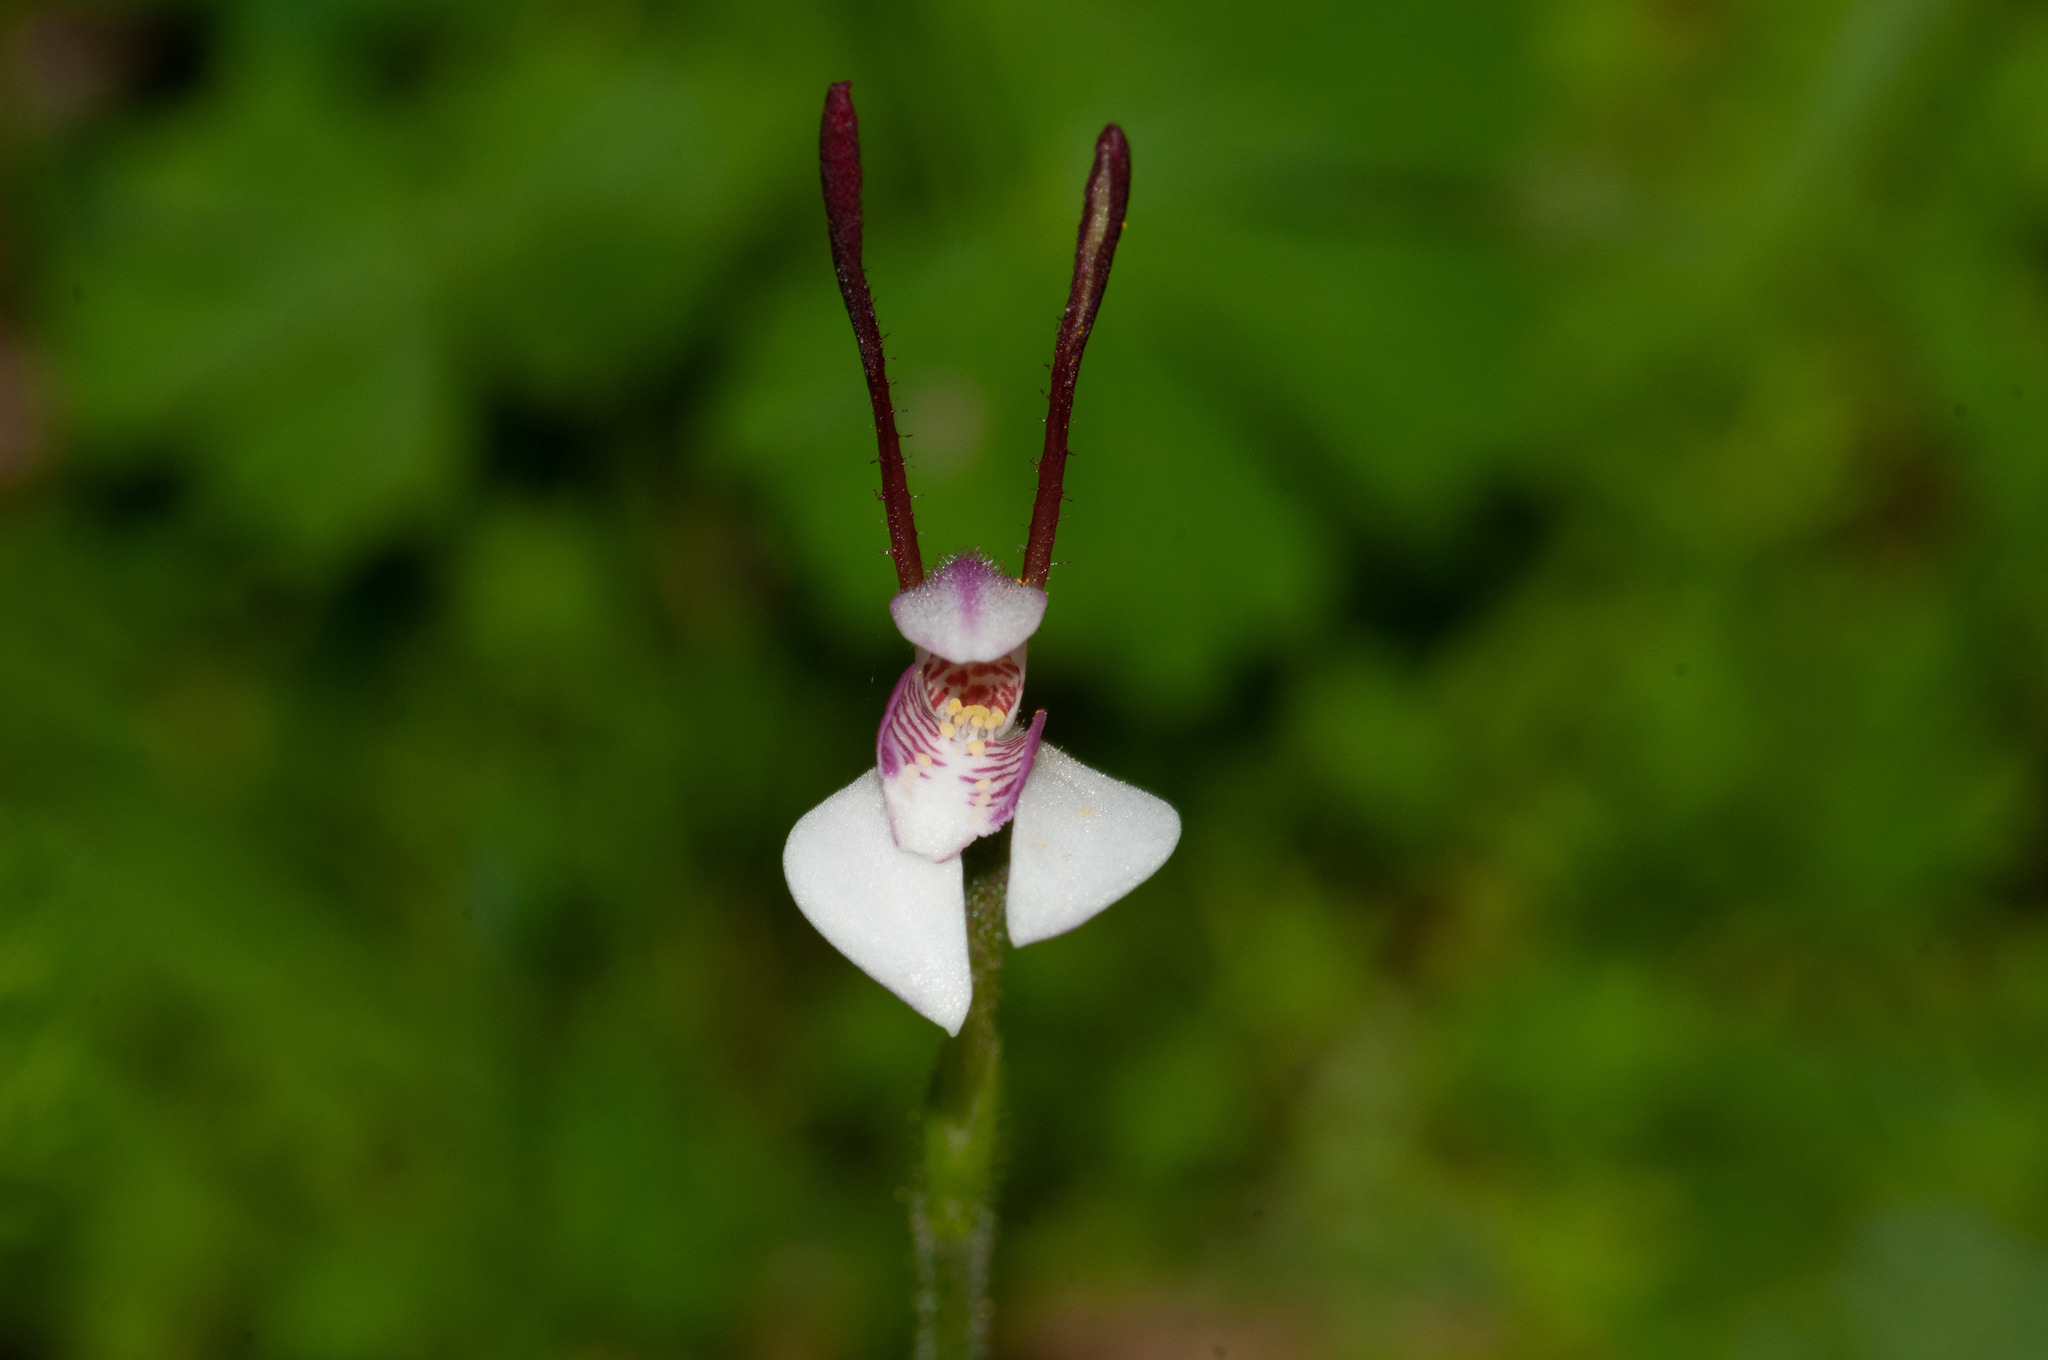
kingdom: Plantae
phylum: Tracheophyta
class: Liliopsida
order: Asparagales
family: Orchidaceae
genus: Leptoceras
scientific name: Leptoceras menziesii
